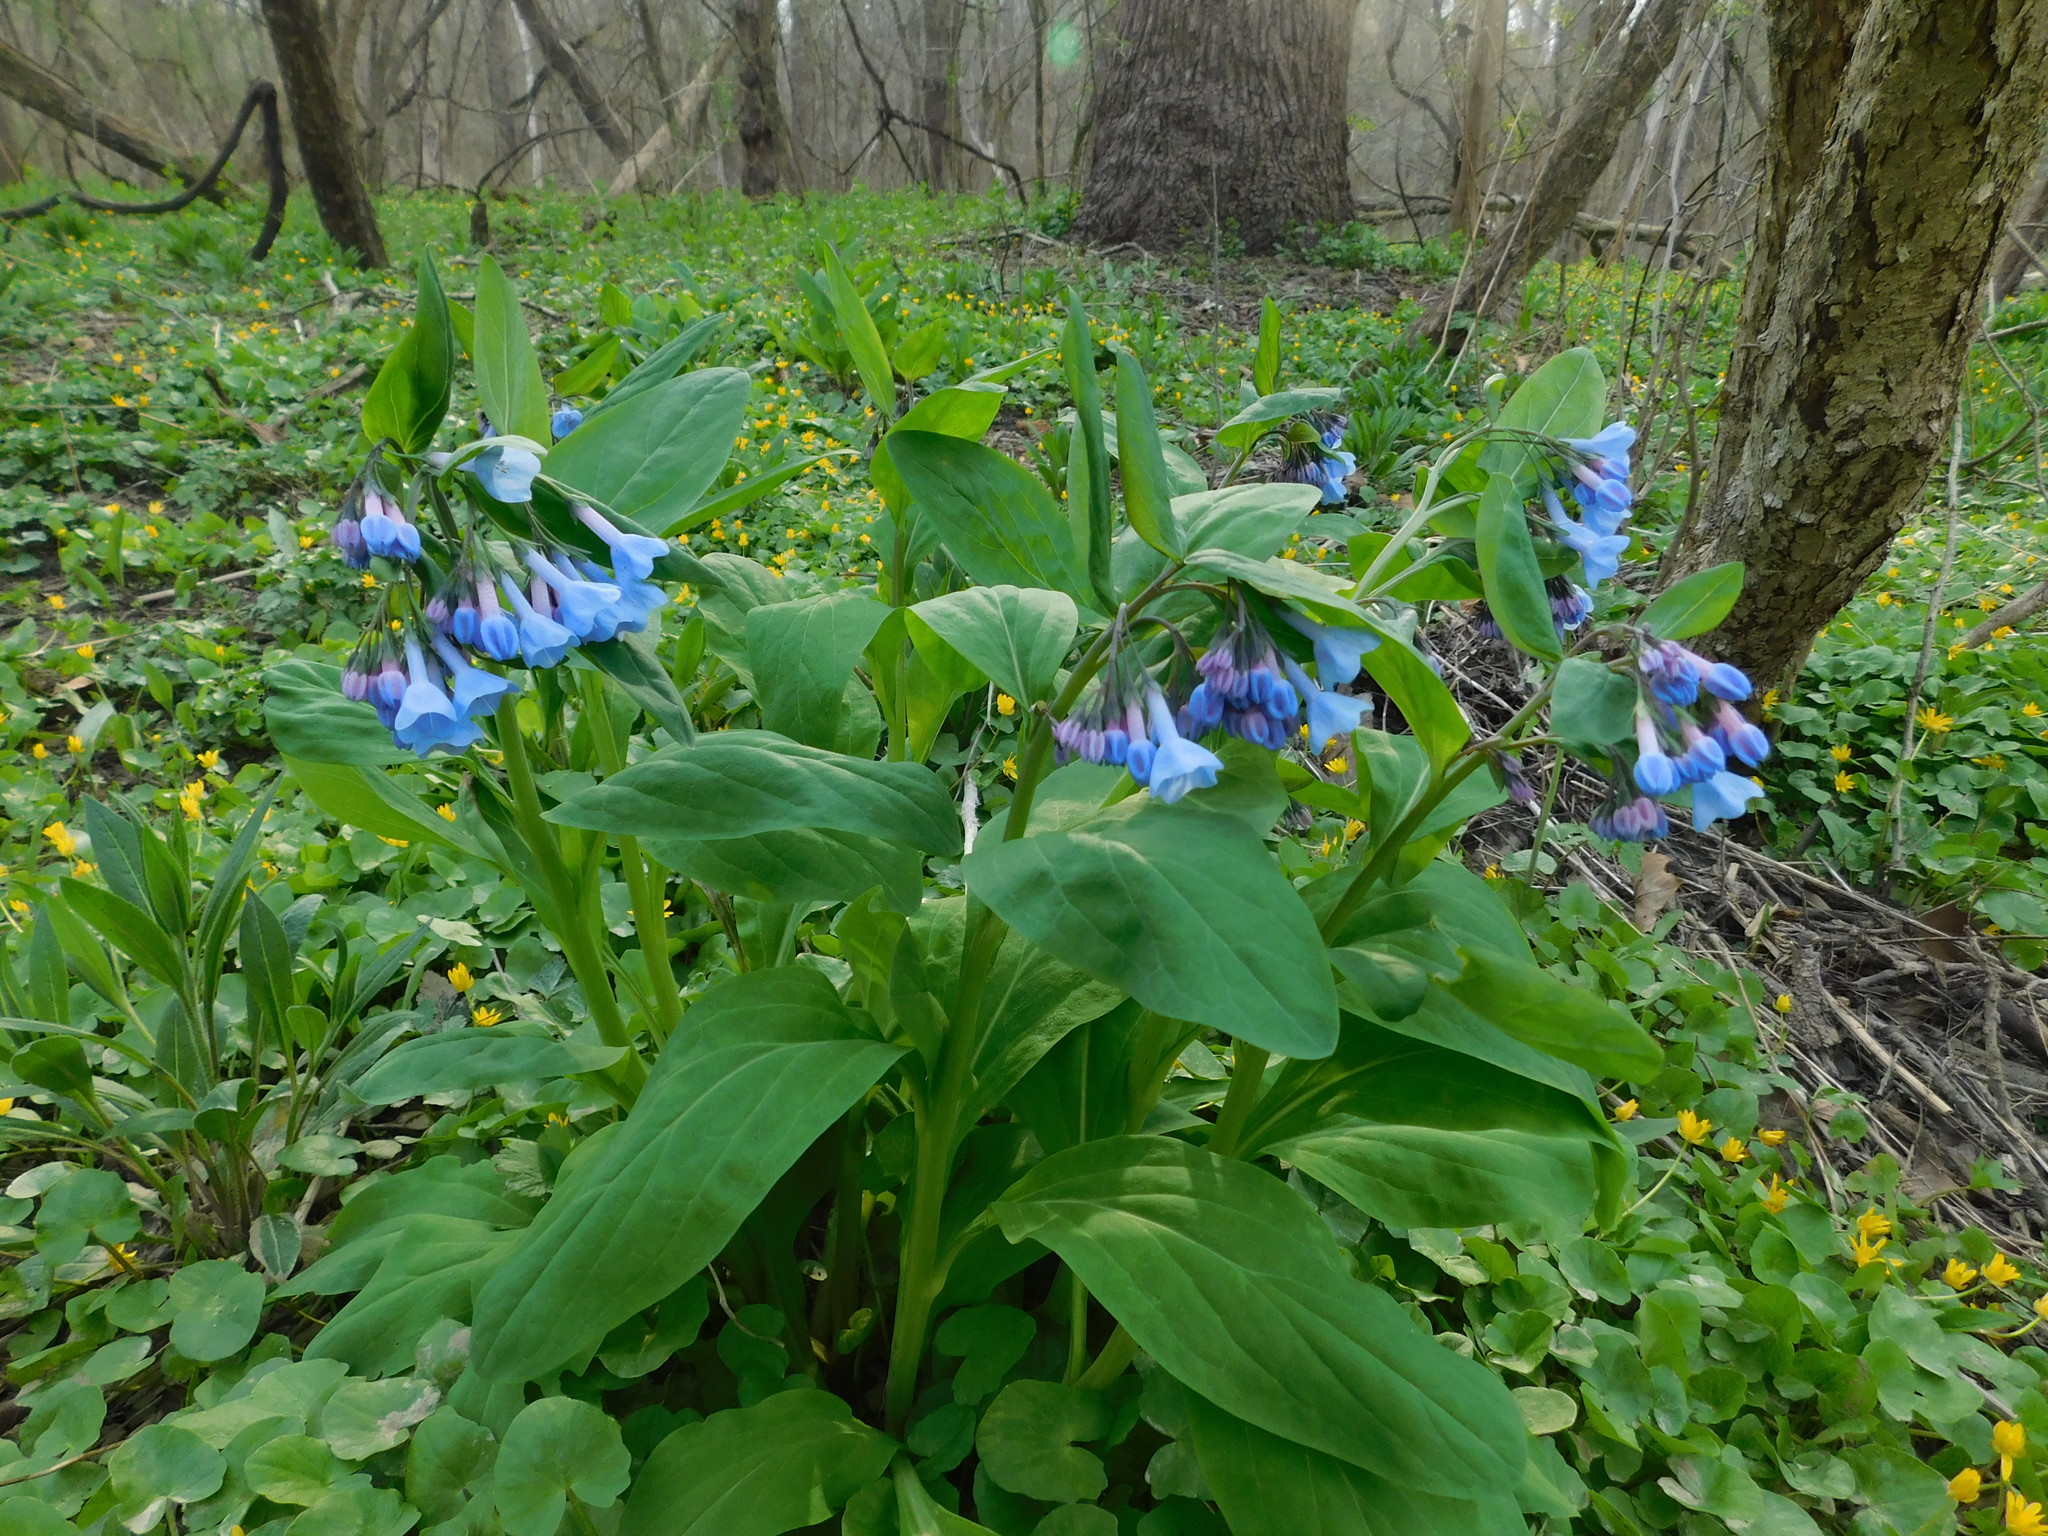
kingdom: Plantae
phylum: Tracheophyta
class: Magnoliopsida
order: Boraginales
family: Boraginaceae
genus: Mertensia
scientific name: Mertensia virginica
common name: Virginia bluebells
